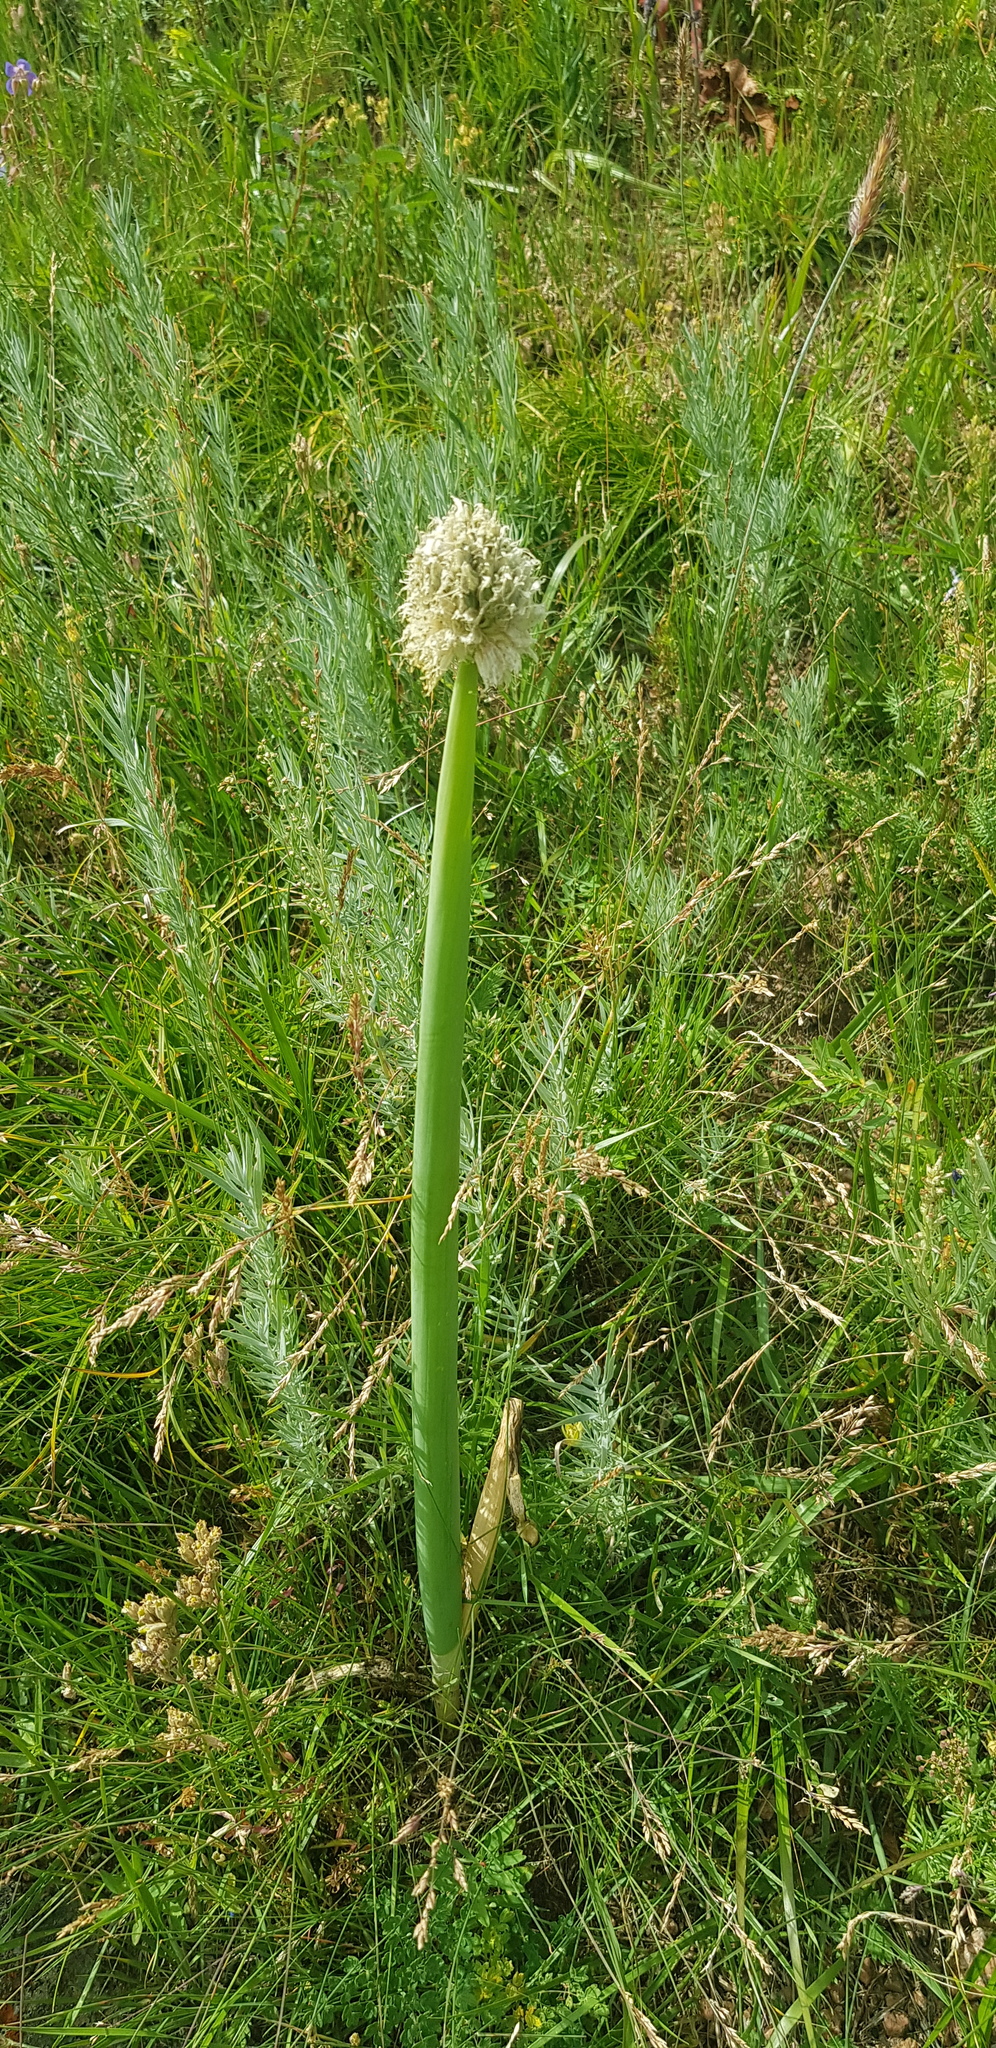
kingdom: Plantae
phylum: Tracheophyta
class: Liliopsida
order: Asparagales
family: Amaryllidaceae
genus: Allium
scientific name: Allium altaicum
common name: Altai onion
